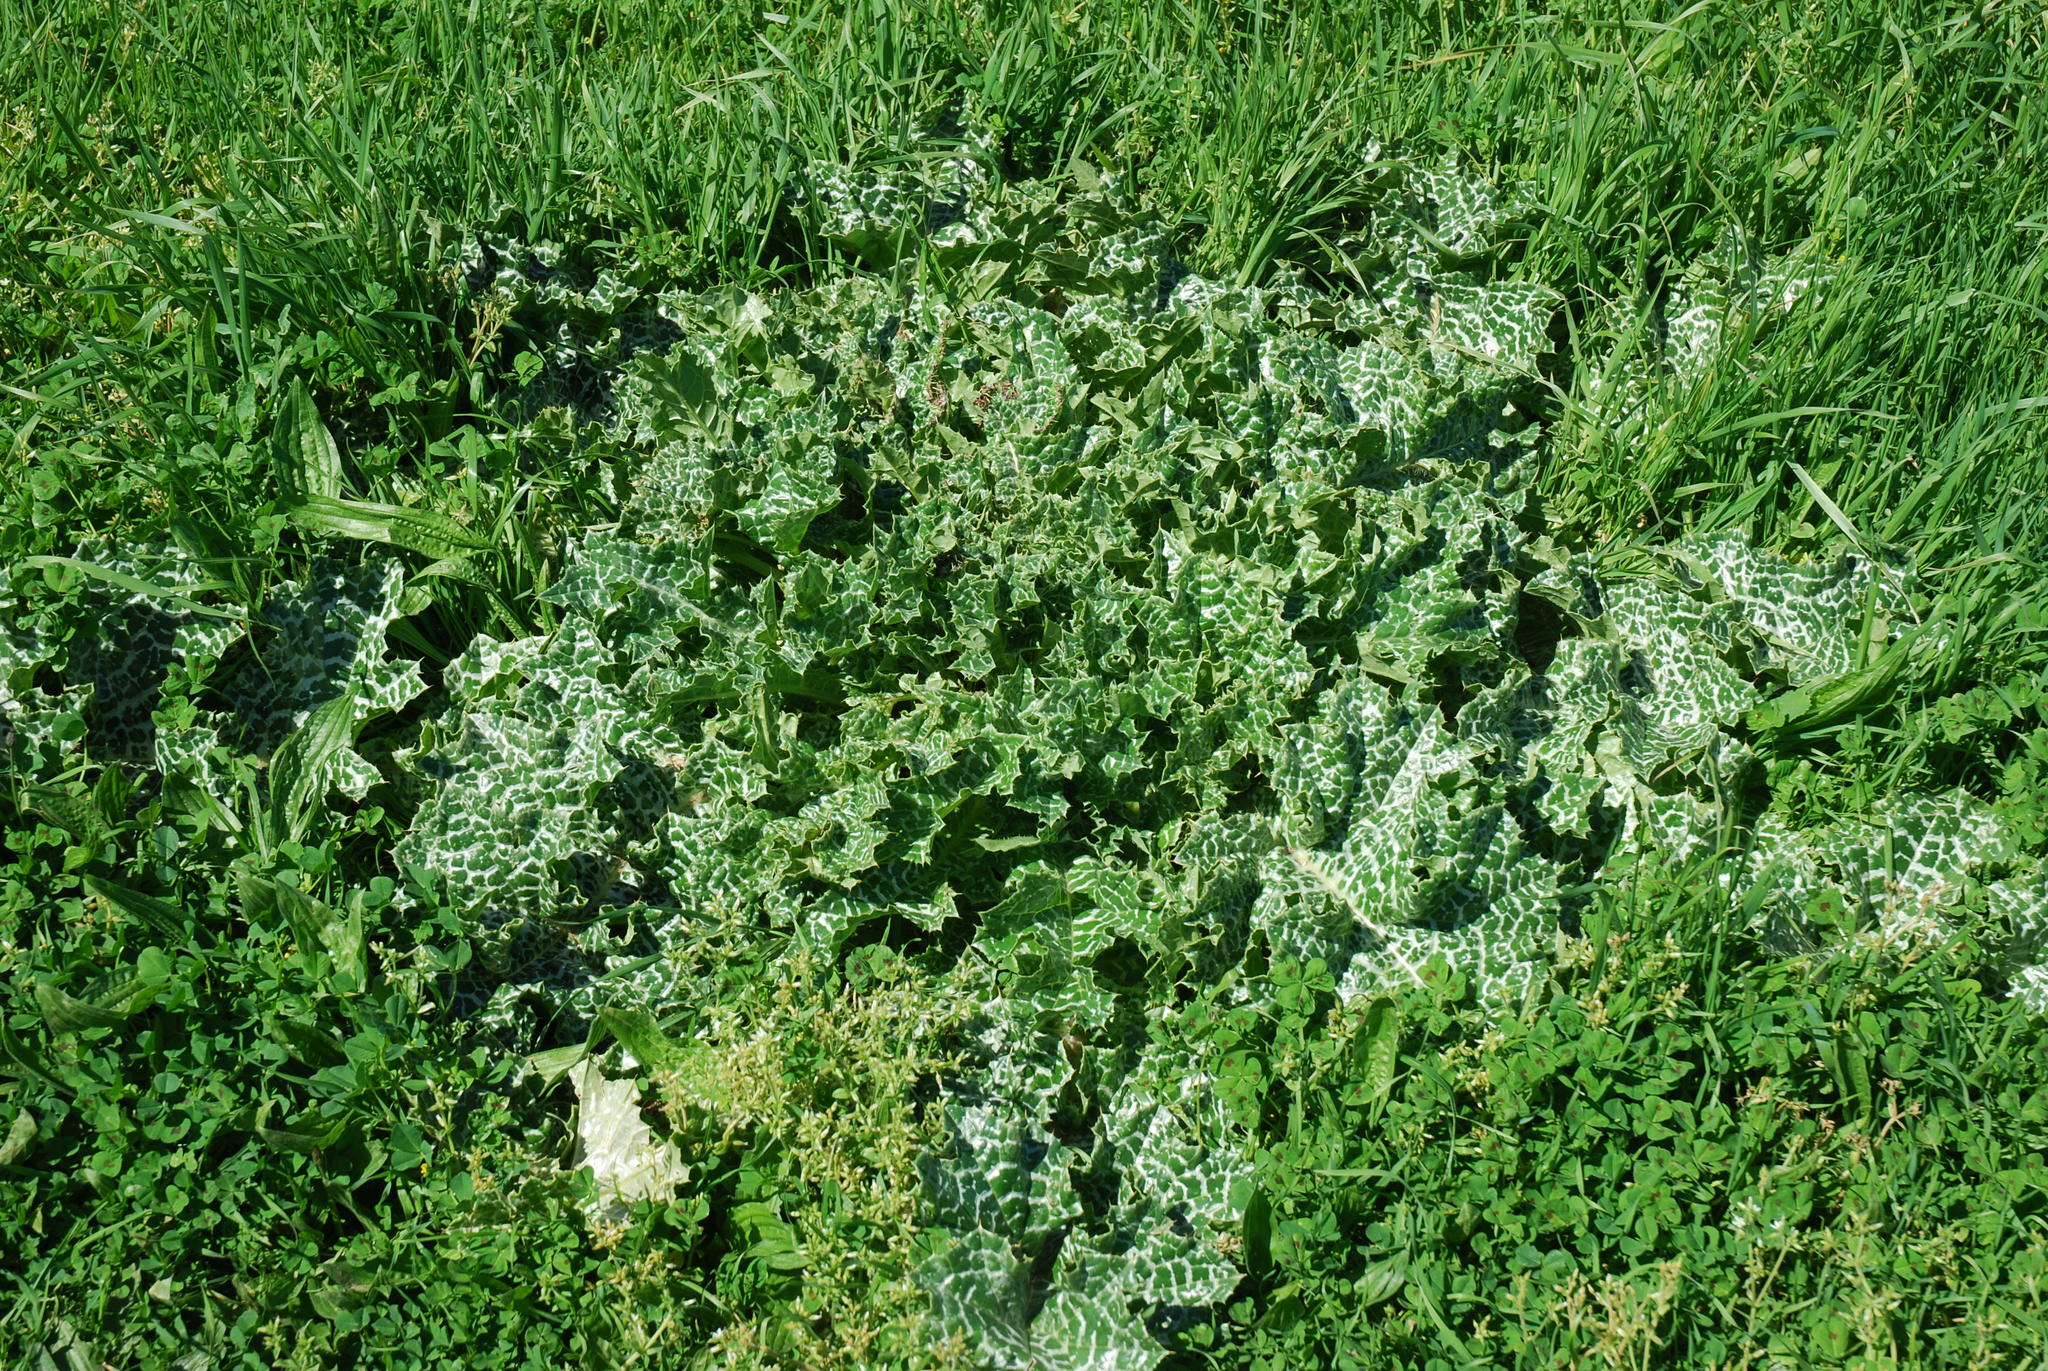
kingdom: Plantae
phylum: Tracheophyta
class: Magnoliopsida
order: Asterales
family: Asteraceae
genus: Silybum
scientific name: Silybum marianum
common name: Milk thistle
